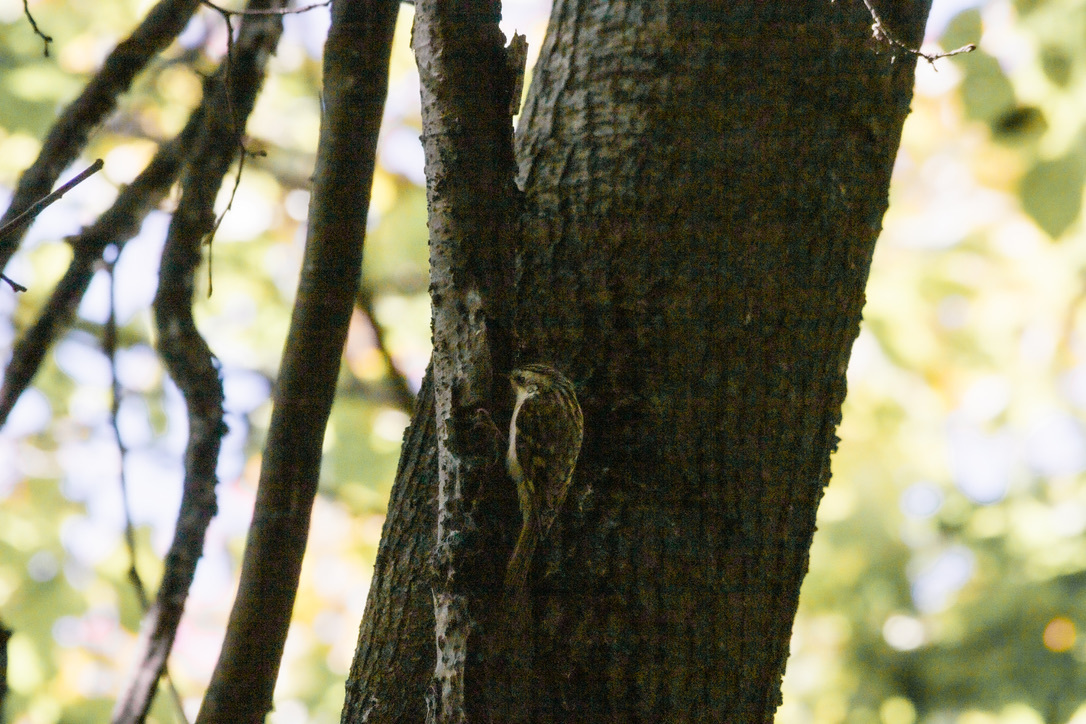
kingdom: Animalia
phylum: Chordata
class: Aves
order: Passeriformes
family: Certhiidae
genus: Certhia
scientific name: Certhia familiaris
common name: Eurasian treecreeper
